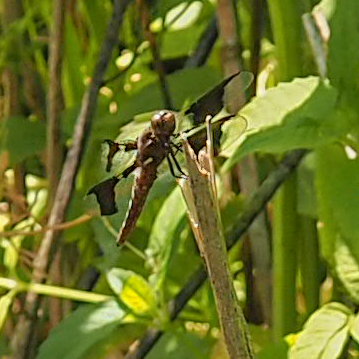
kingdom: Animalia
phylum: Arthropoda
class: Insecta
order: Odonata
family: Libellulidae
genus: Plathemis
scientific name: Plathemis lydia
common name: Common whitetail
